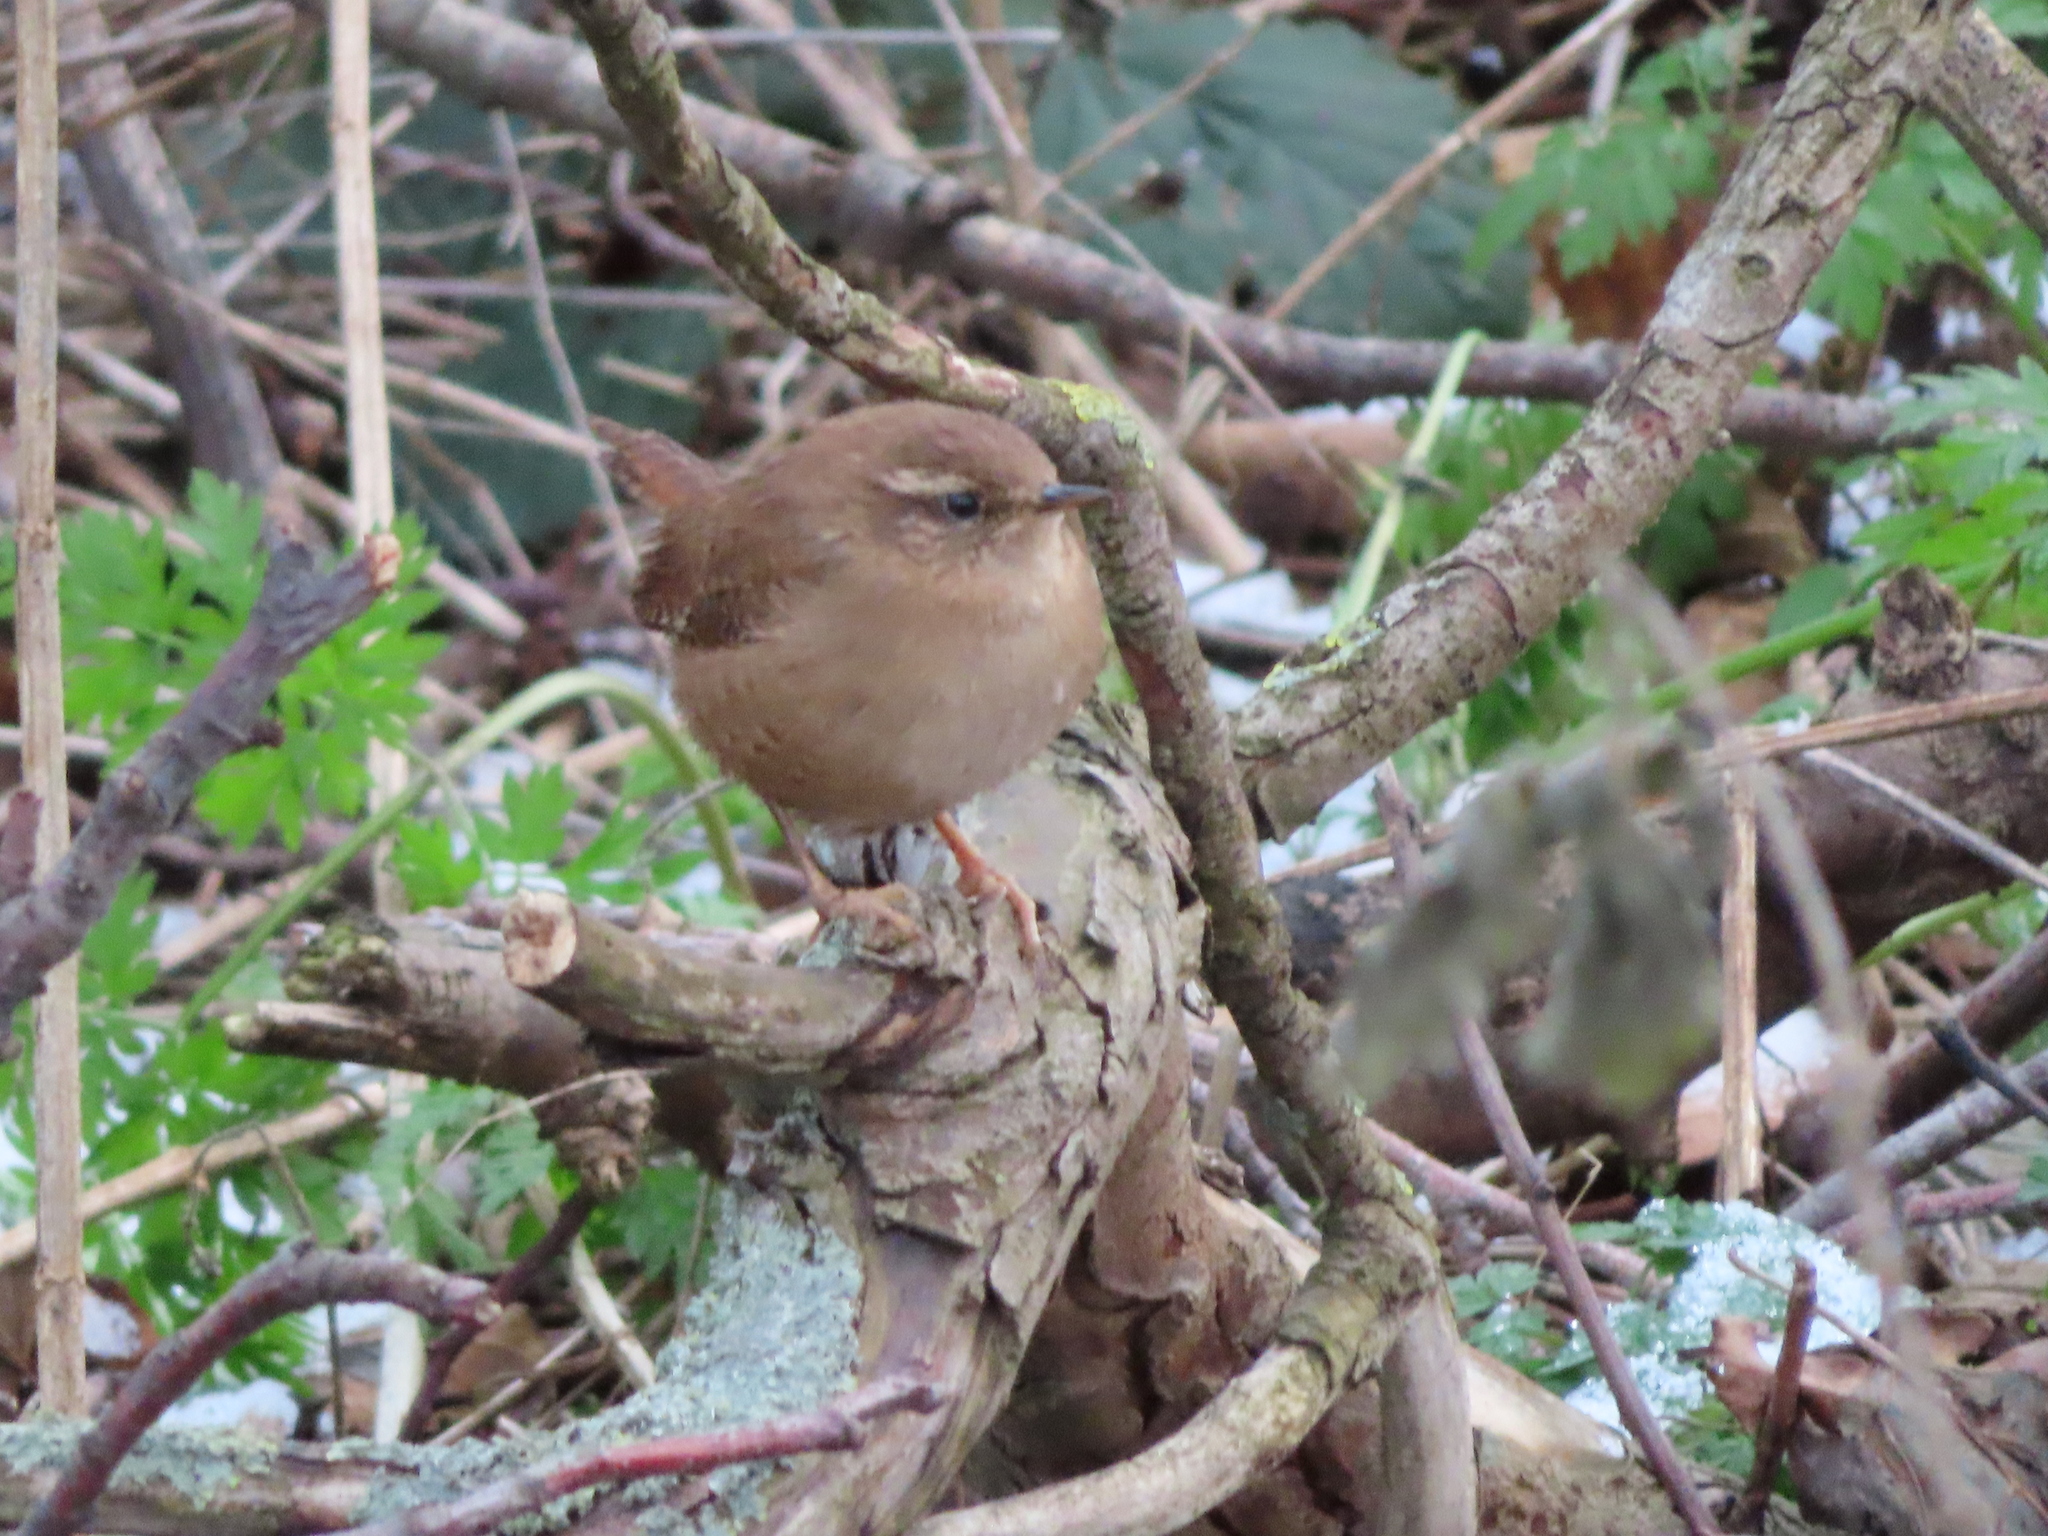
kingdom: Animalia
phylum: Chordata
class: Aves
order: Passeriformes
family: Troglodytidae
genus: Troglodytes
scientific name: Troglodytes troglodytes
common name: Eurasian wren
